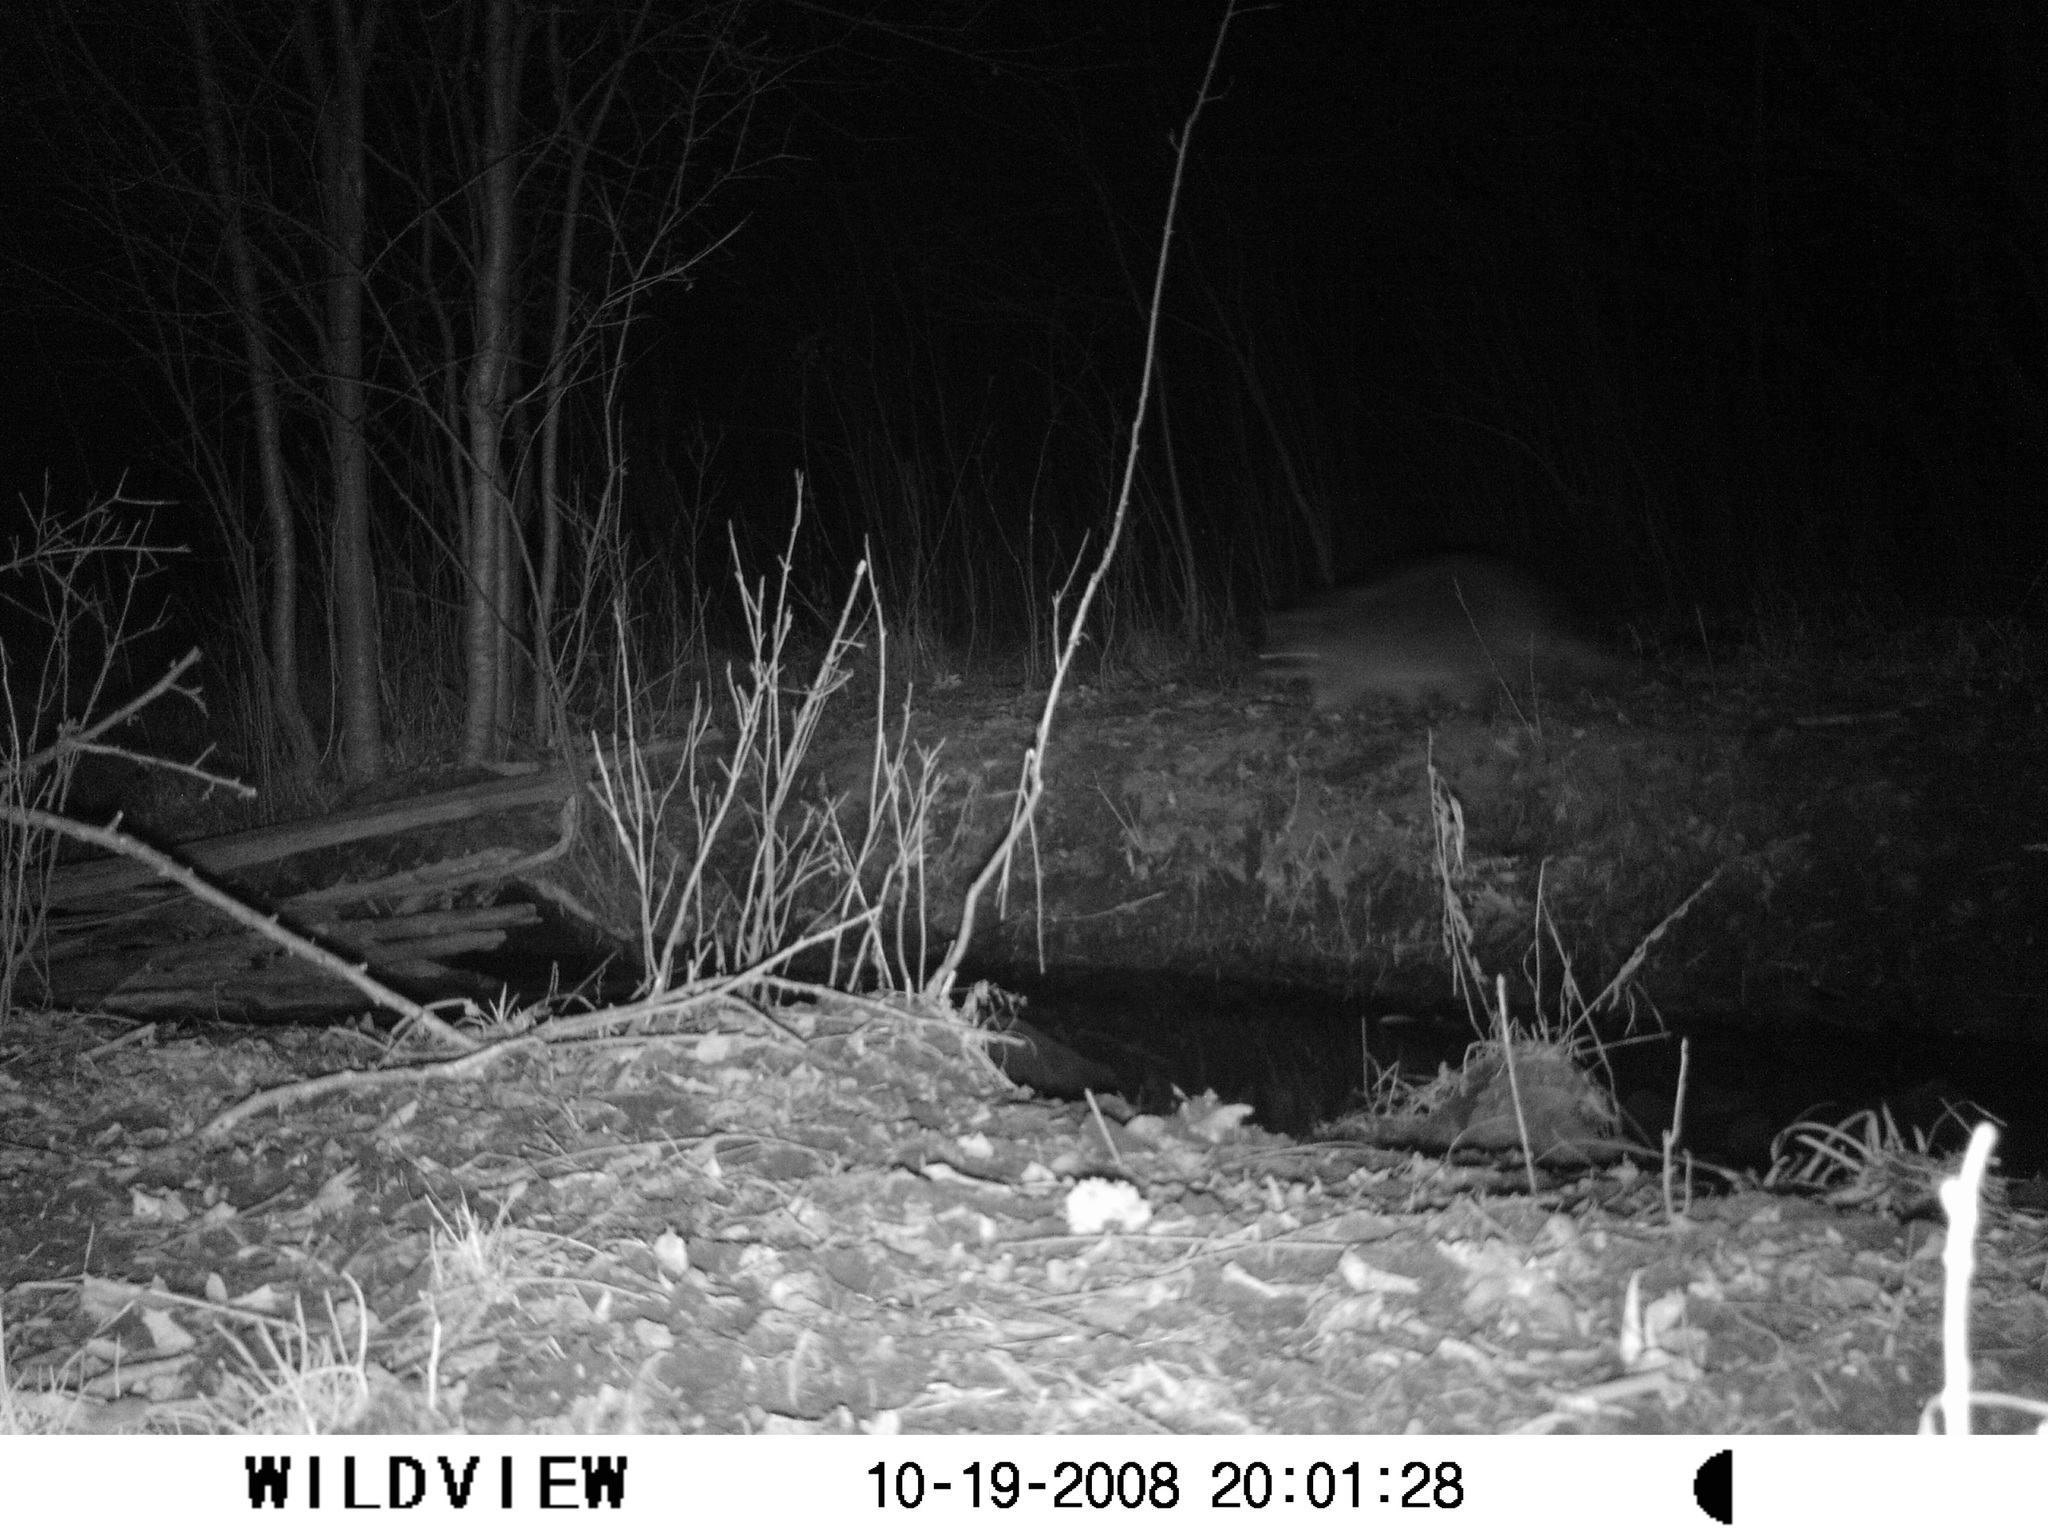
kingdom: Animalia
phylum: Chordata
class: Mammalia
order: Carnivora
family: Procyonidae
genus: Procyon
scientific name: Procyon lotor
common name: Raccoon
